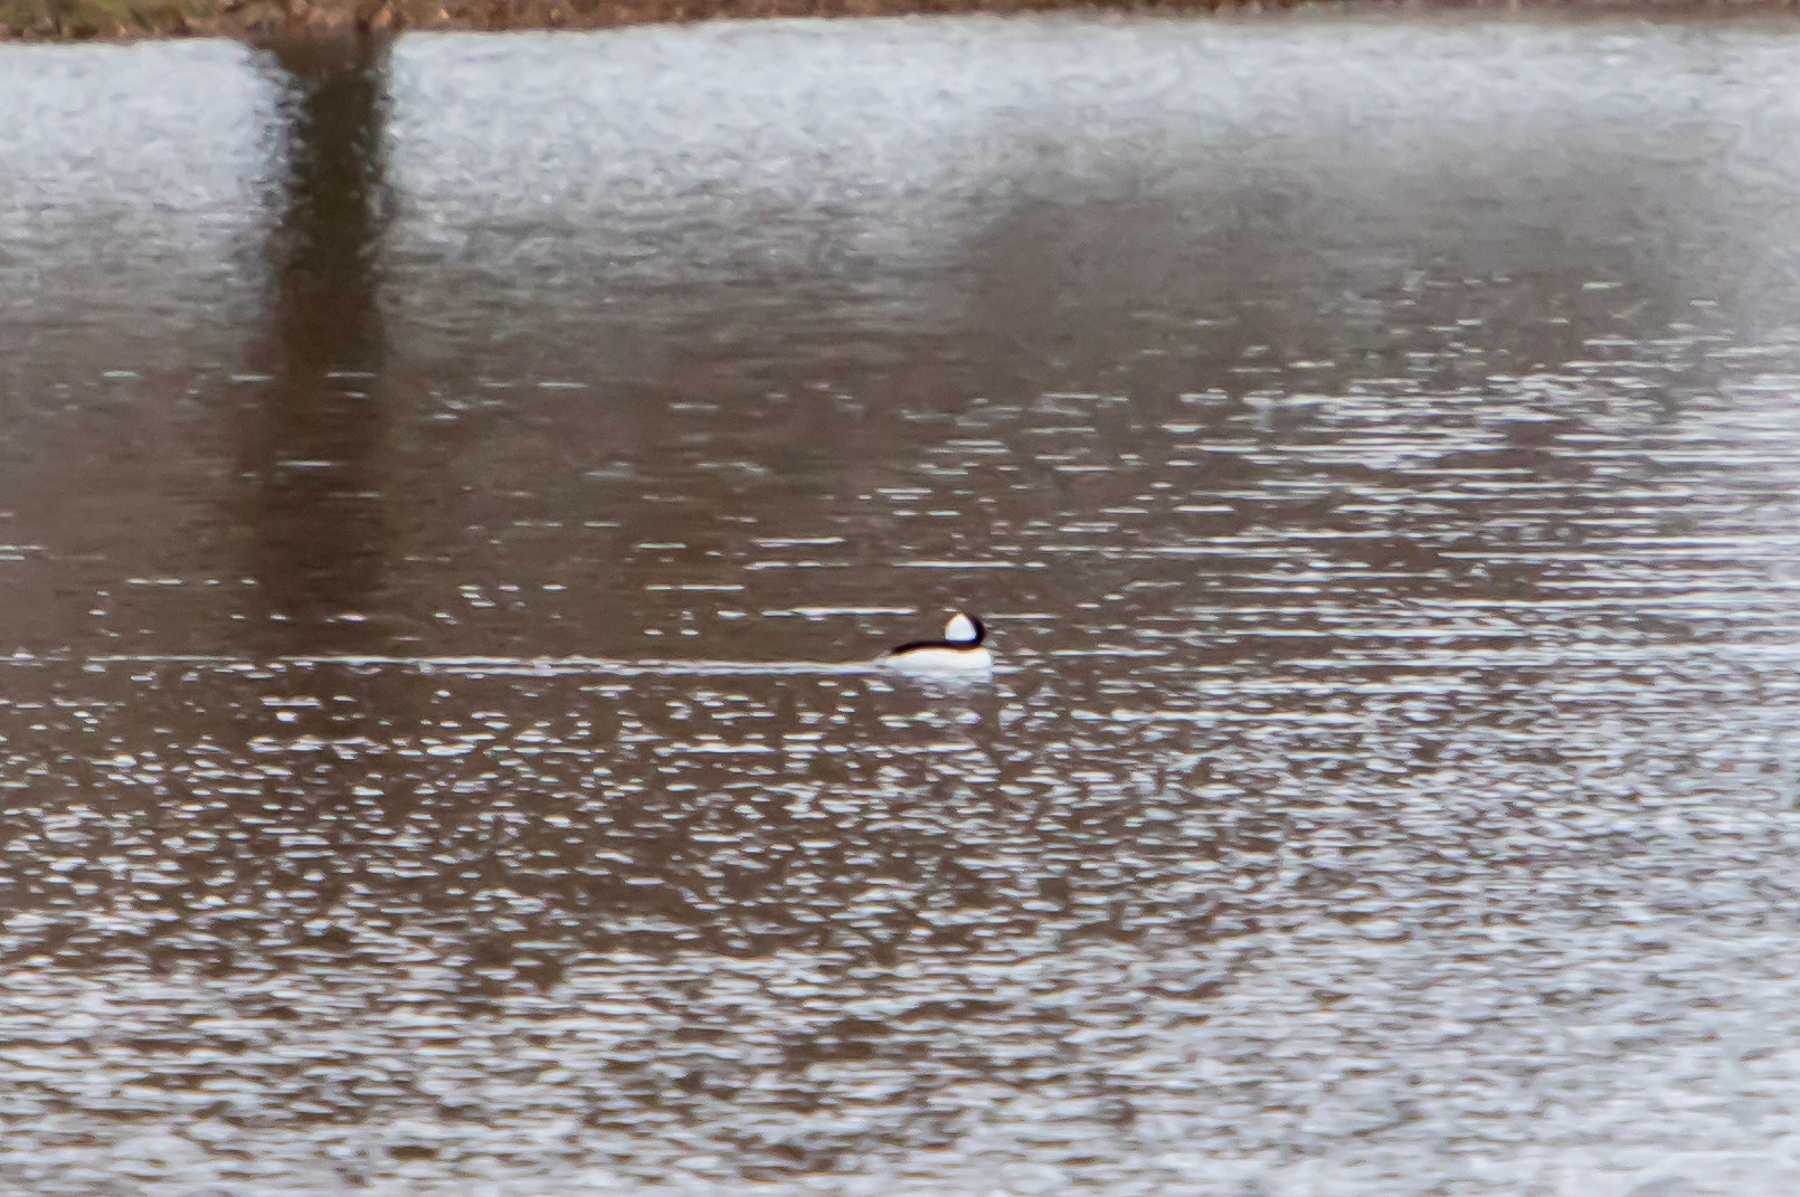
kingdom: Animalia
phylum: Chordata
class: Aves
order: Anseriformes
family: Anatidae
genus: Bucephala
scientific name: Bucephala albeola
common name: Bufflehead
